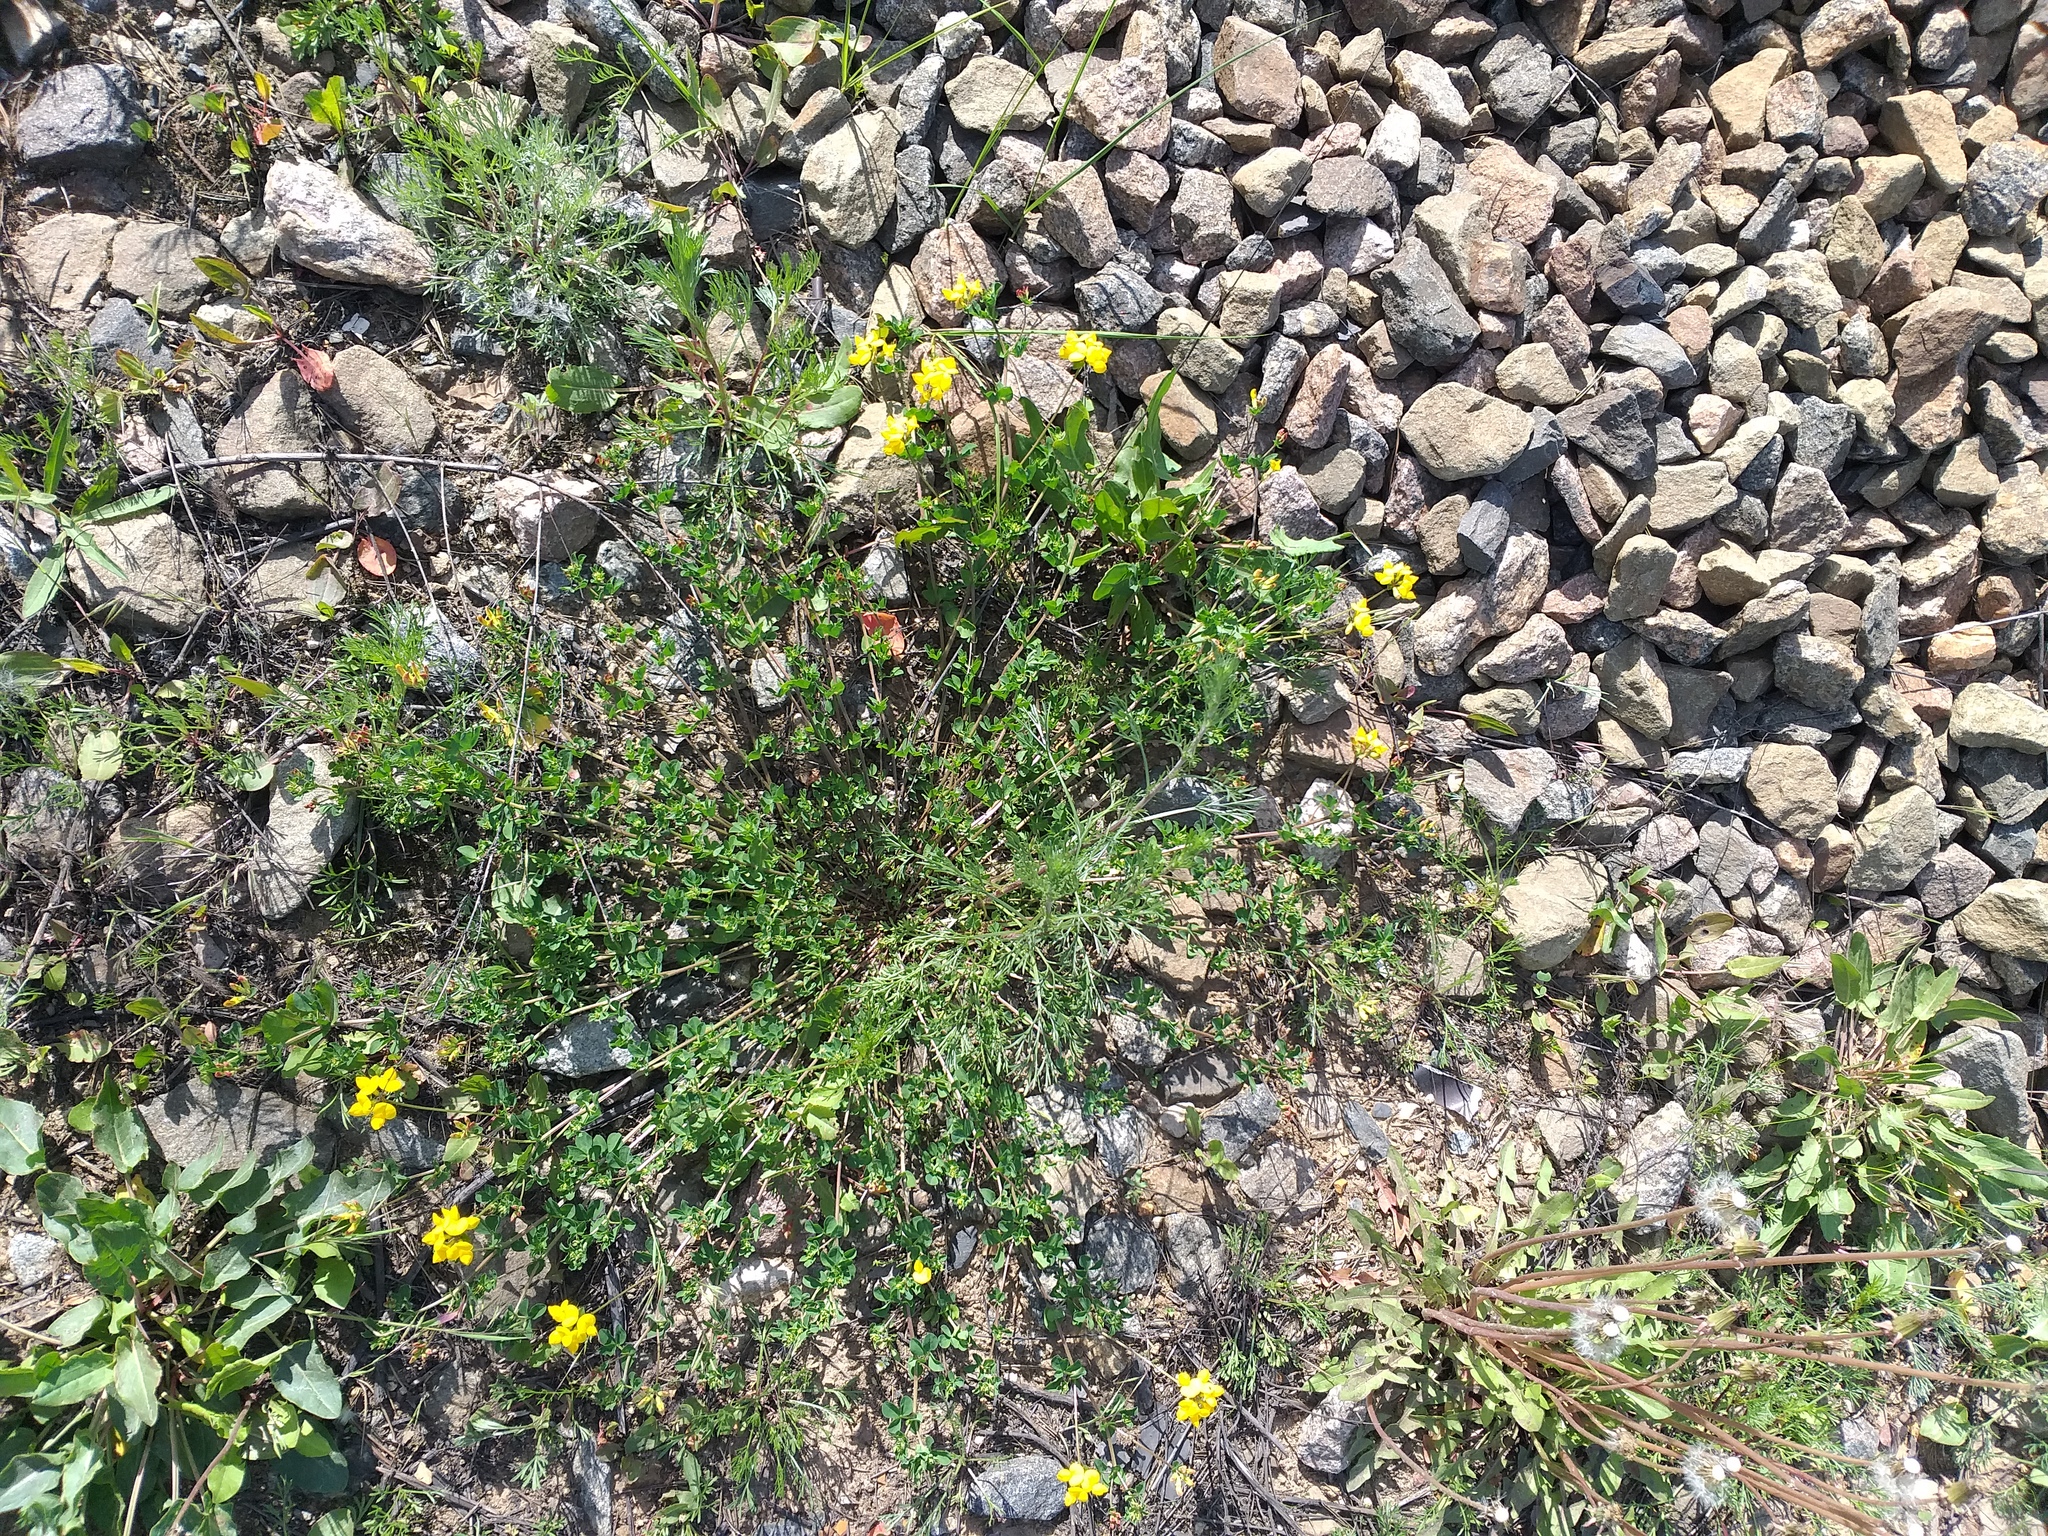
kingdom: Plantae
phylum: Tracheophyta
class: Magnoliopsida
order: Fabales
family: Fabaceae
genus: Lotus
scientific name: Lotus corniculatus
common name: Common bird's-foot-trefoil
